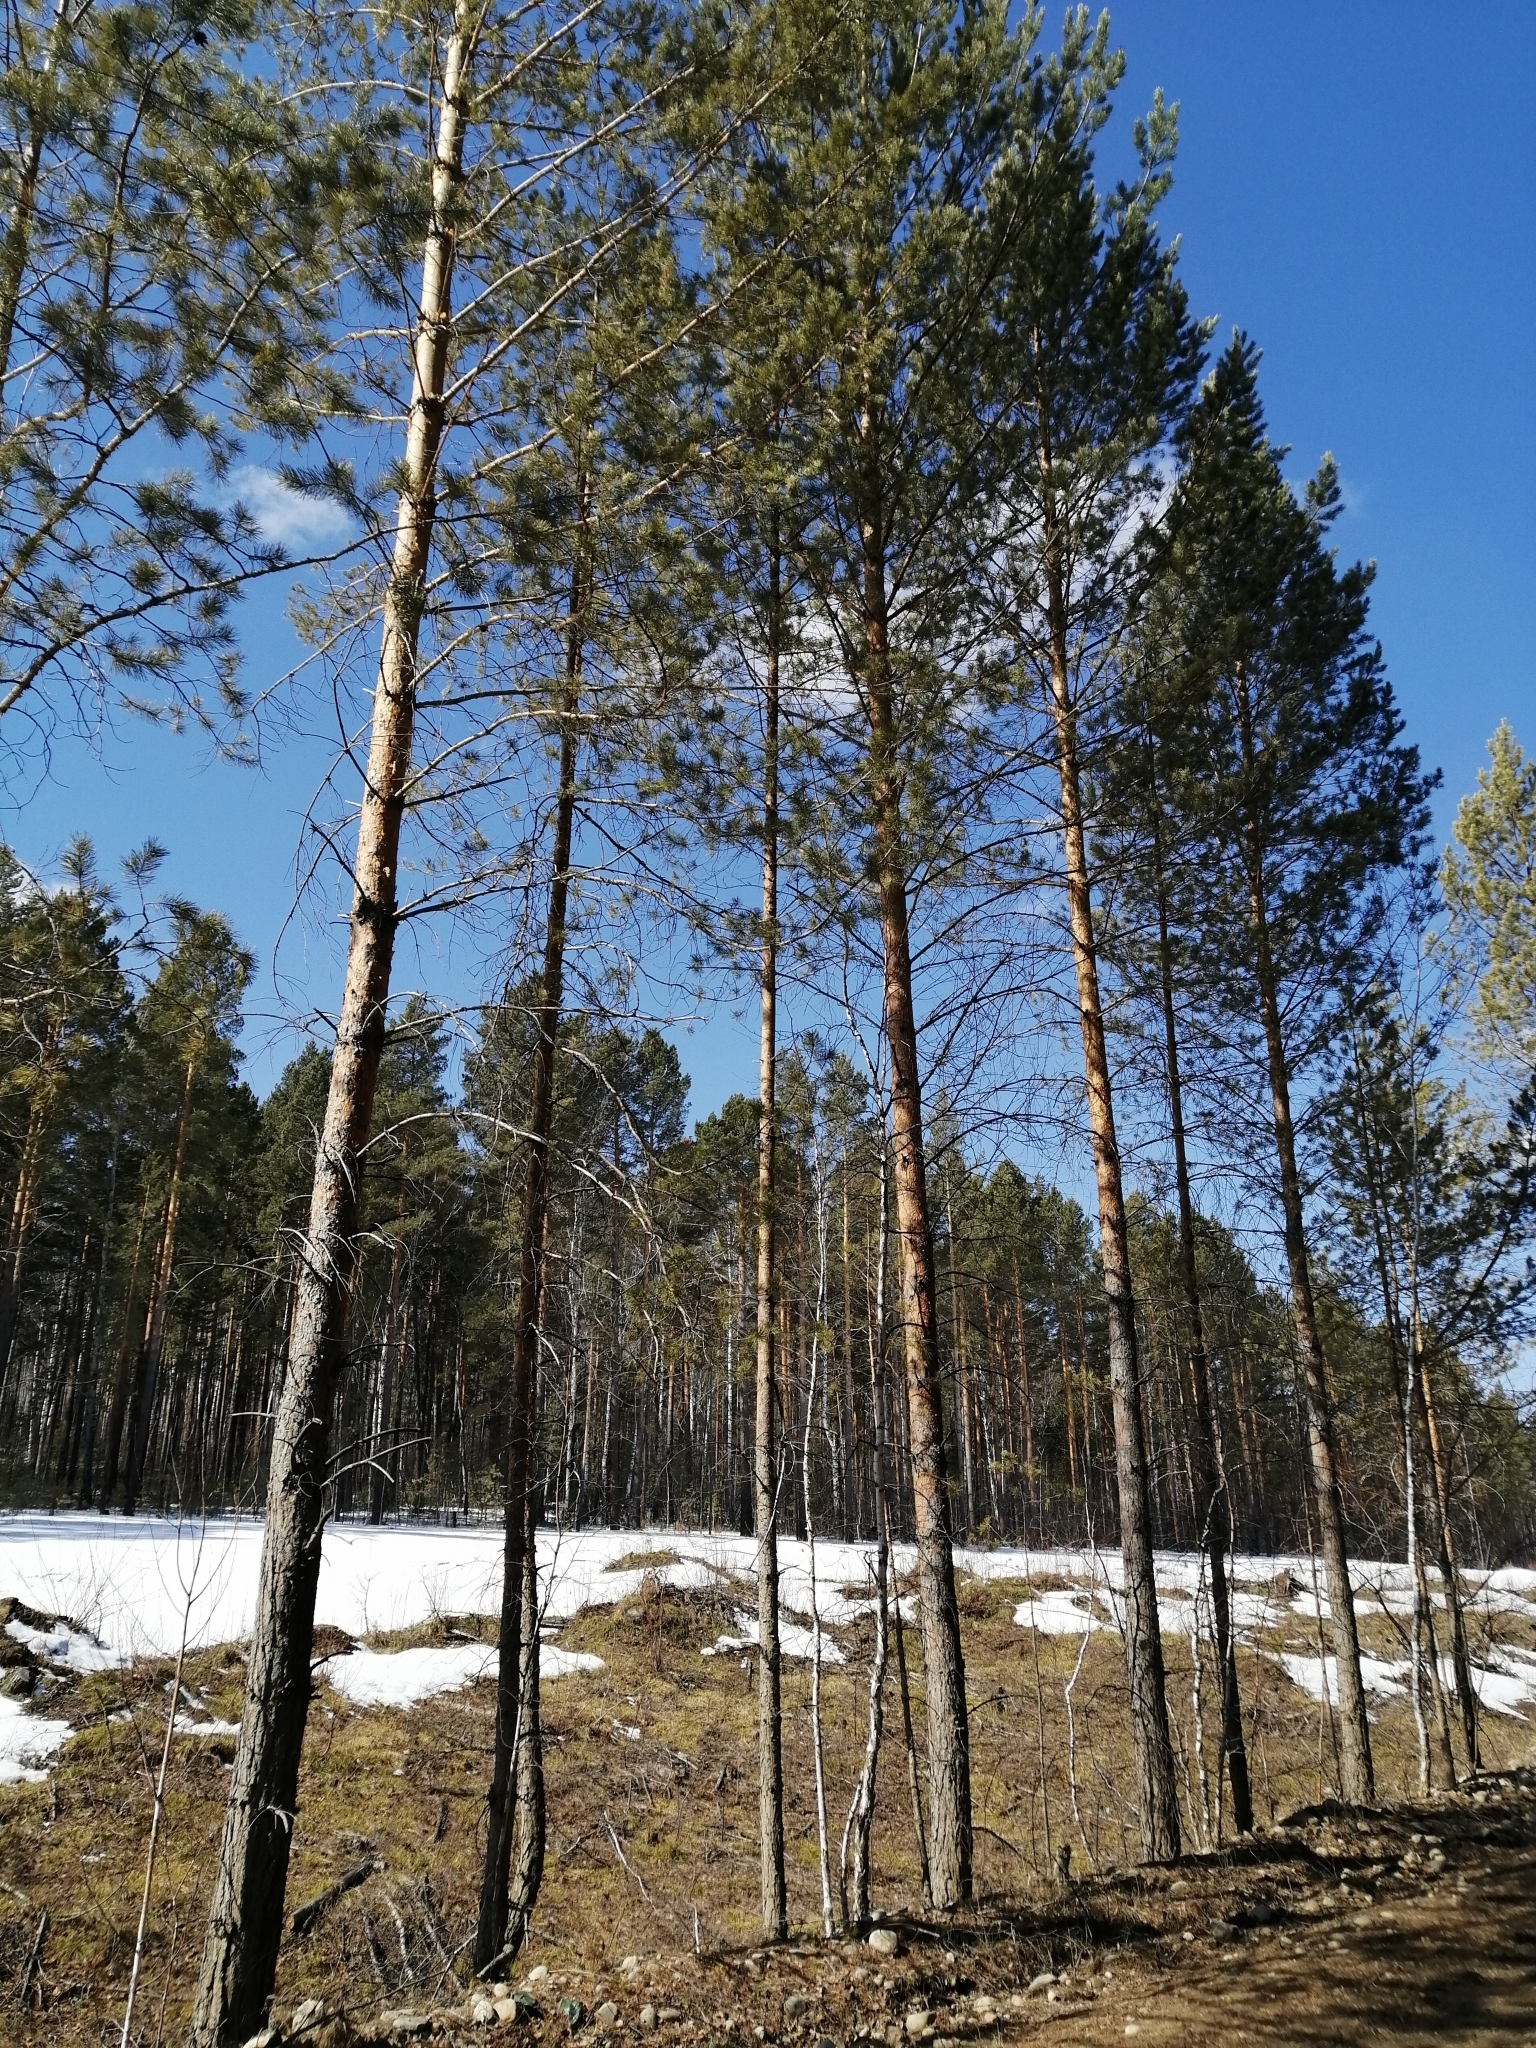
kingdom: Plantae
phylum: Tracheophyta
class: Pinopsida
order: Pinales
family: Pinaceae
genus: Pinus
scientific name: Pinus sylvestris
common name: Scots pine
